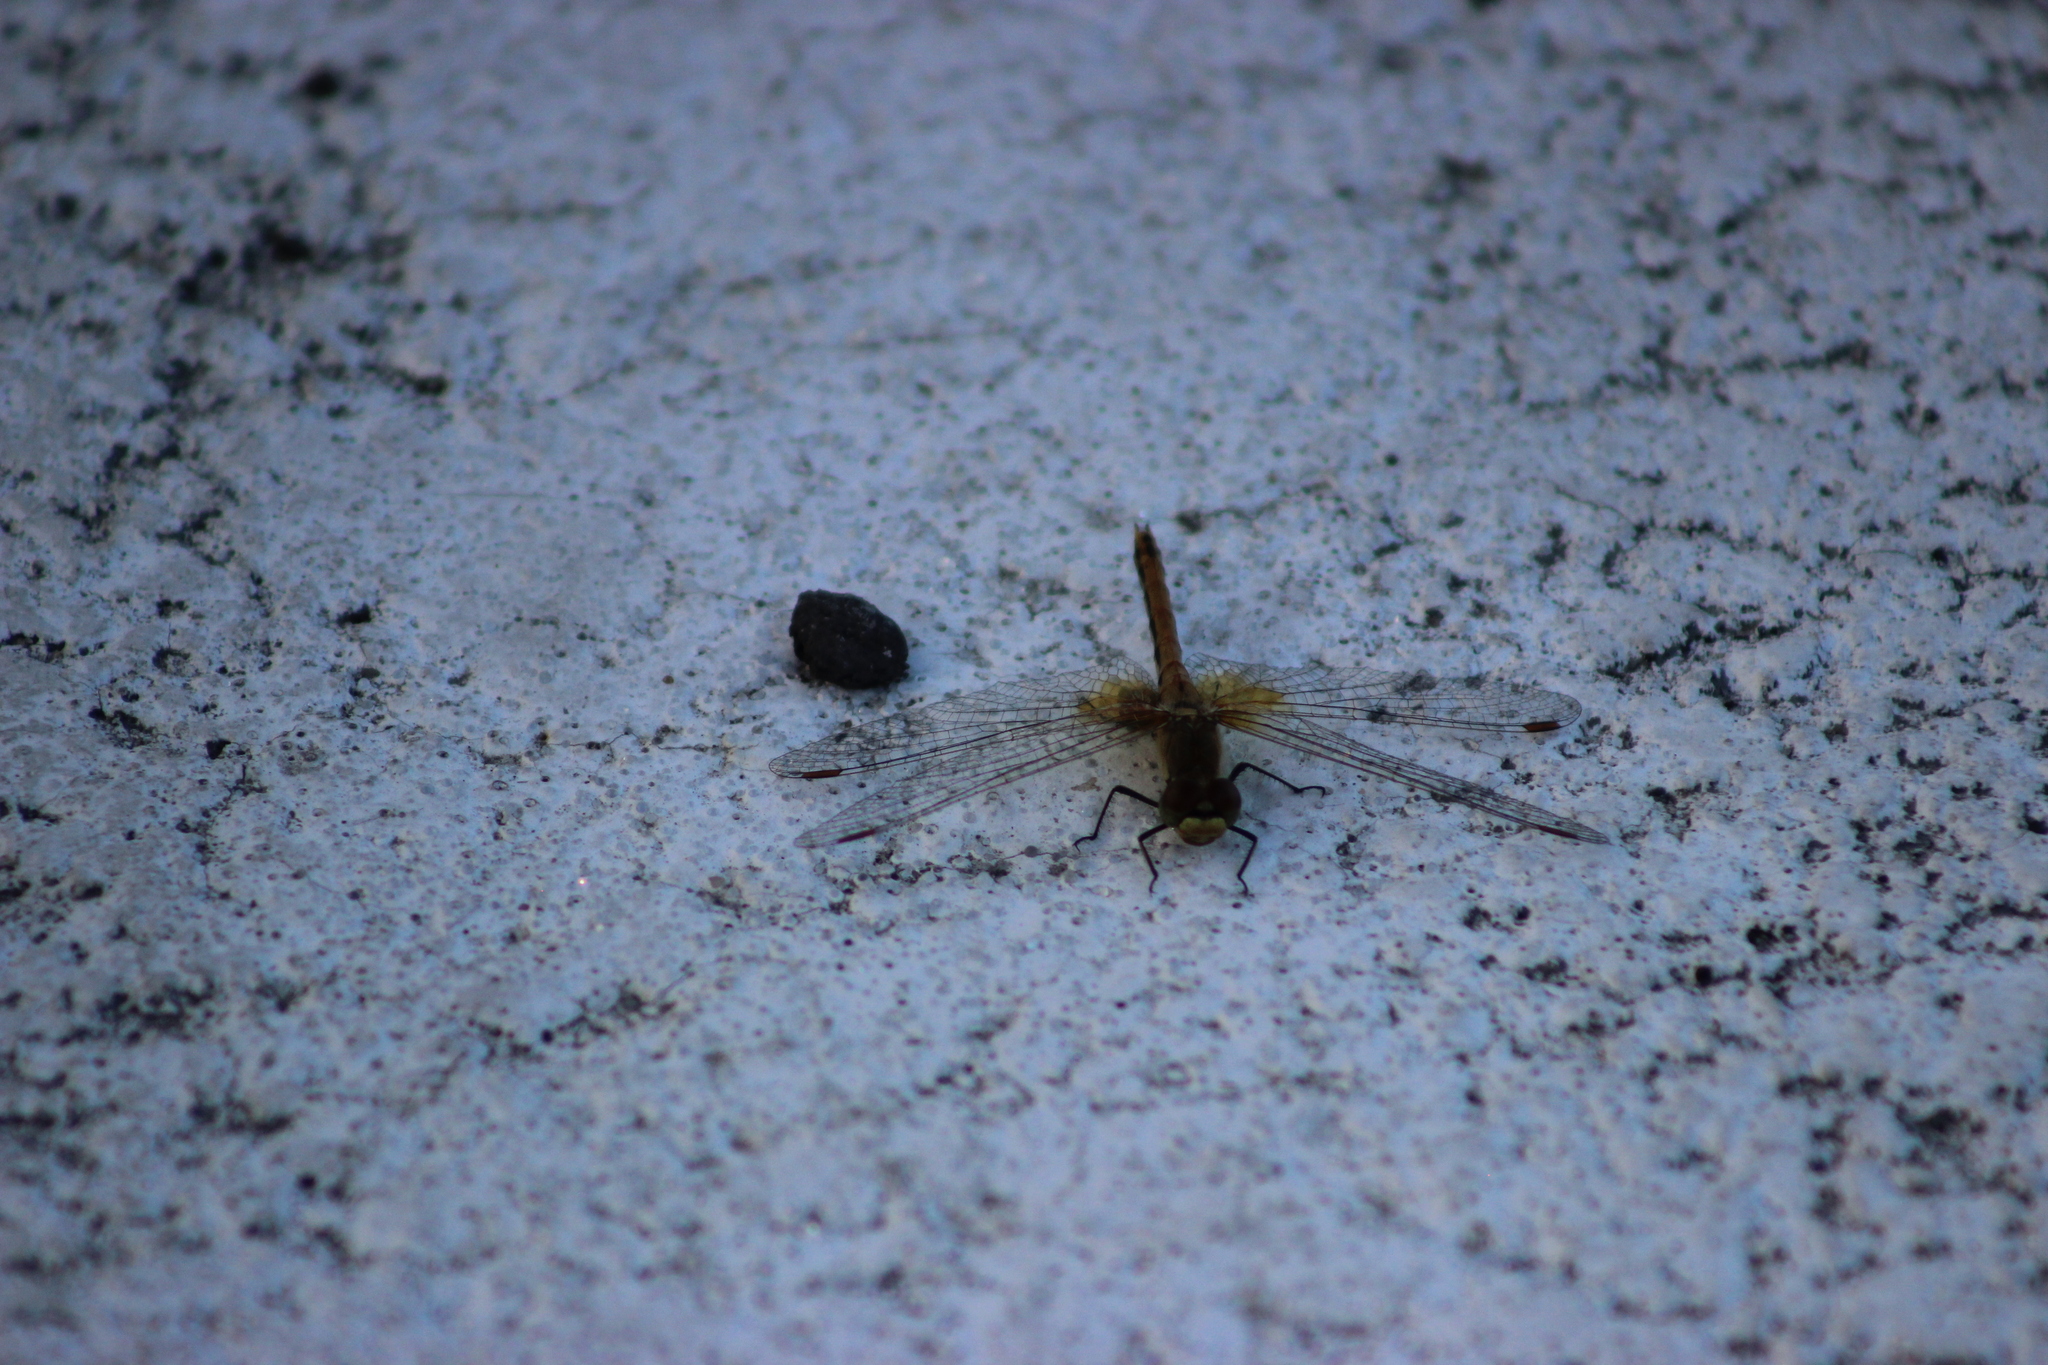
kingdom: Animalia
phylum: Arthropoda
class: Insecta
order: Odonata
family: Libellulidae
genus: Sympetrum
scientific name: Sympetrum flaveolum
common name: Yellow-winged darter
